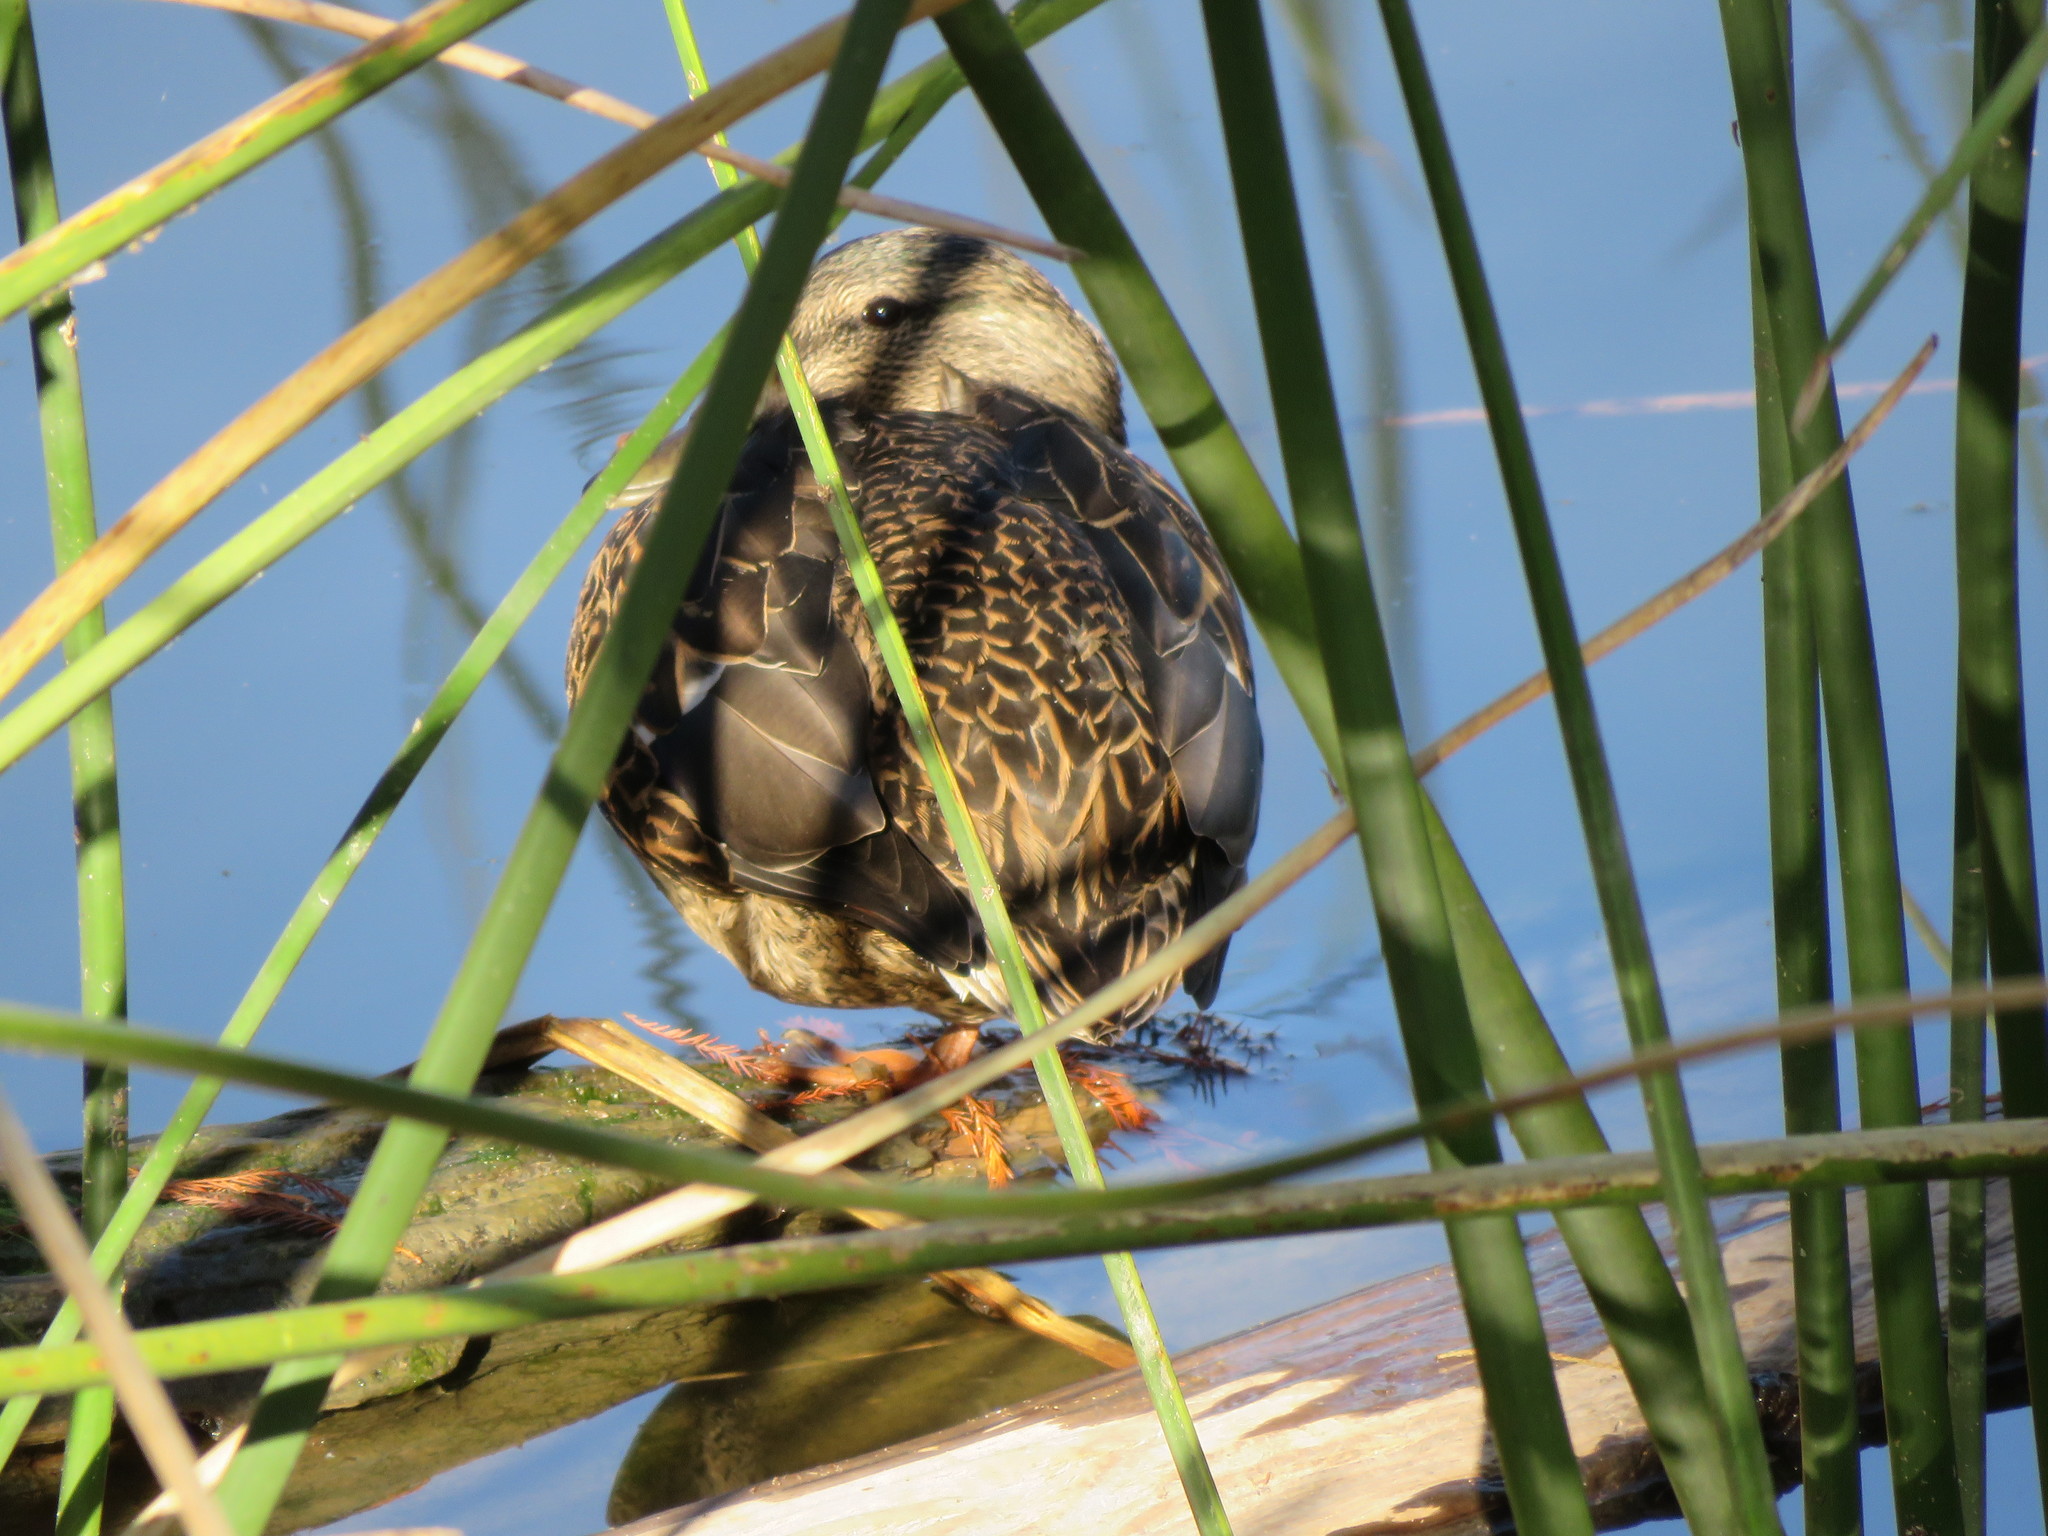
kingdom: Animalia
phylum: Chordata
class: Aves
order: Anseriformes
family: Anatidae
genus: Anas
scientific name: Anas platyrhynchos
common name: Mallard
